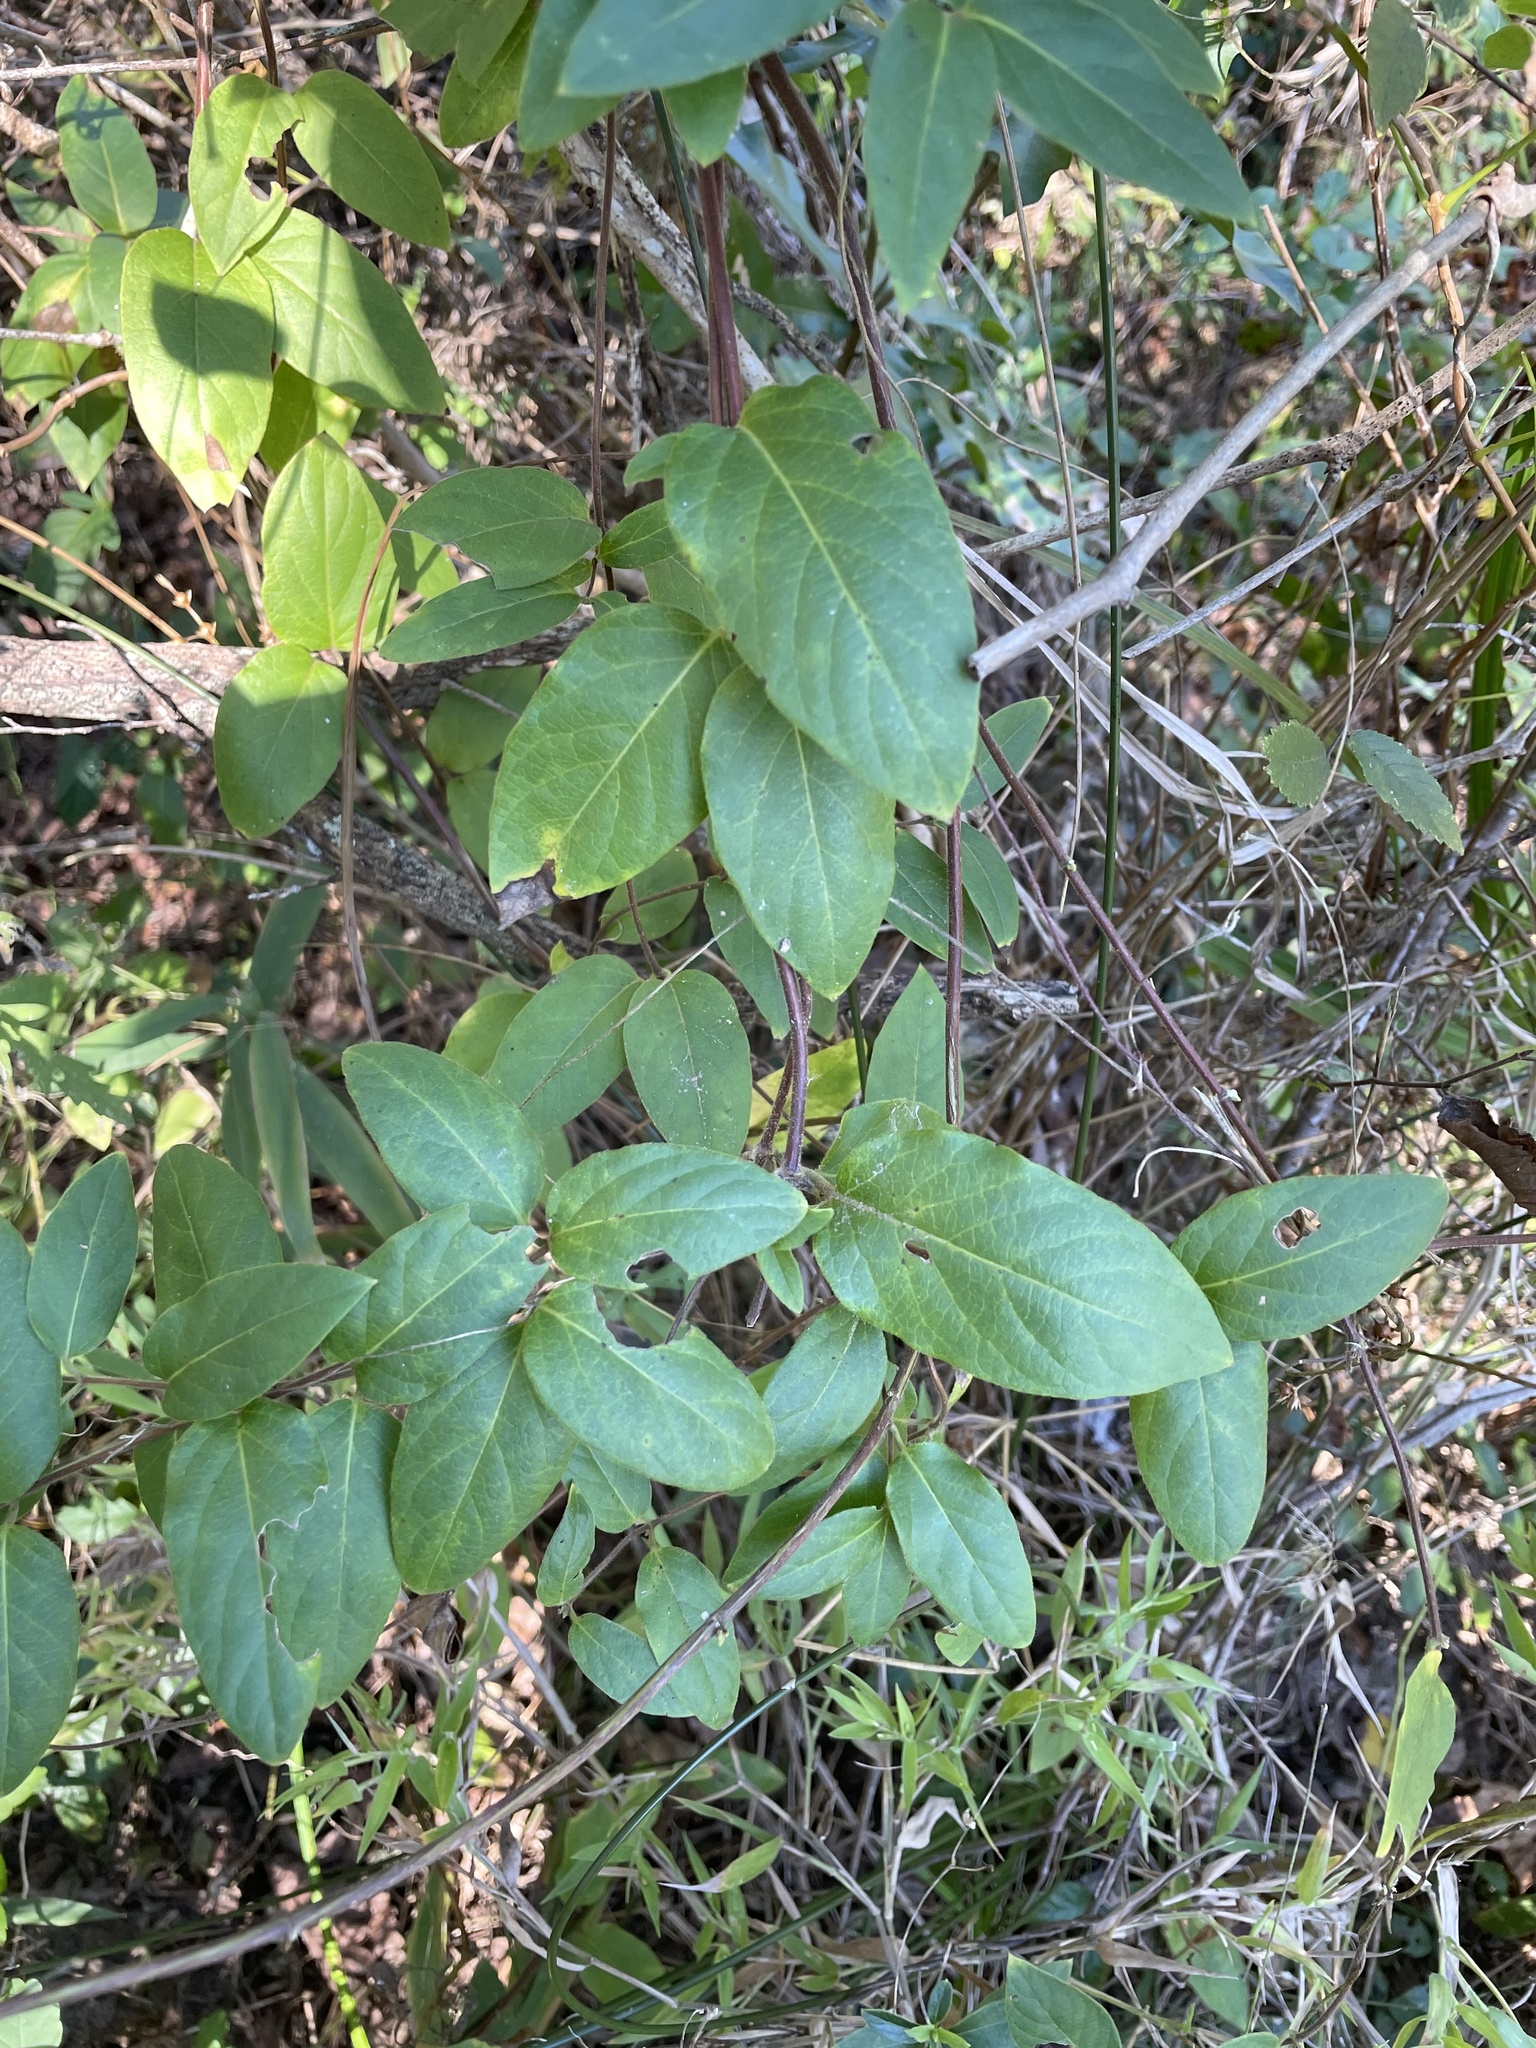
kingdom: Plantae
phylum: Tracheophyta
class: Magnoliopsida
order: Dipsacales
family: Caprifoliaceae
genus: Lonicera
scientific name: Lonicera japonica
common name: Japanese honeysuckle
